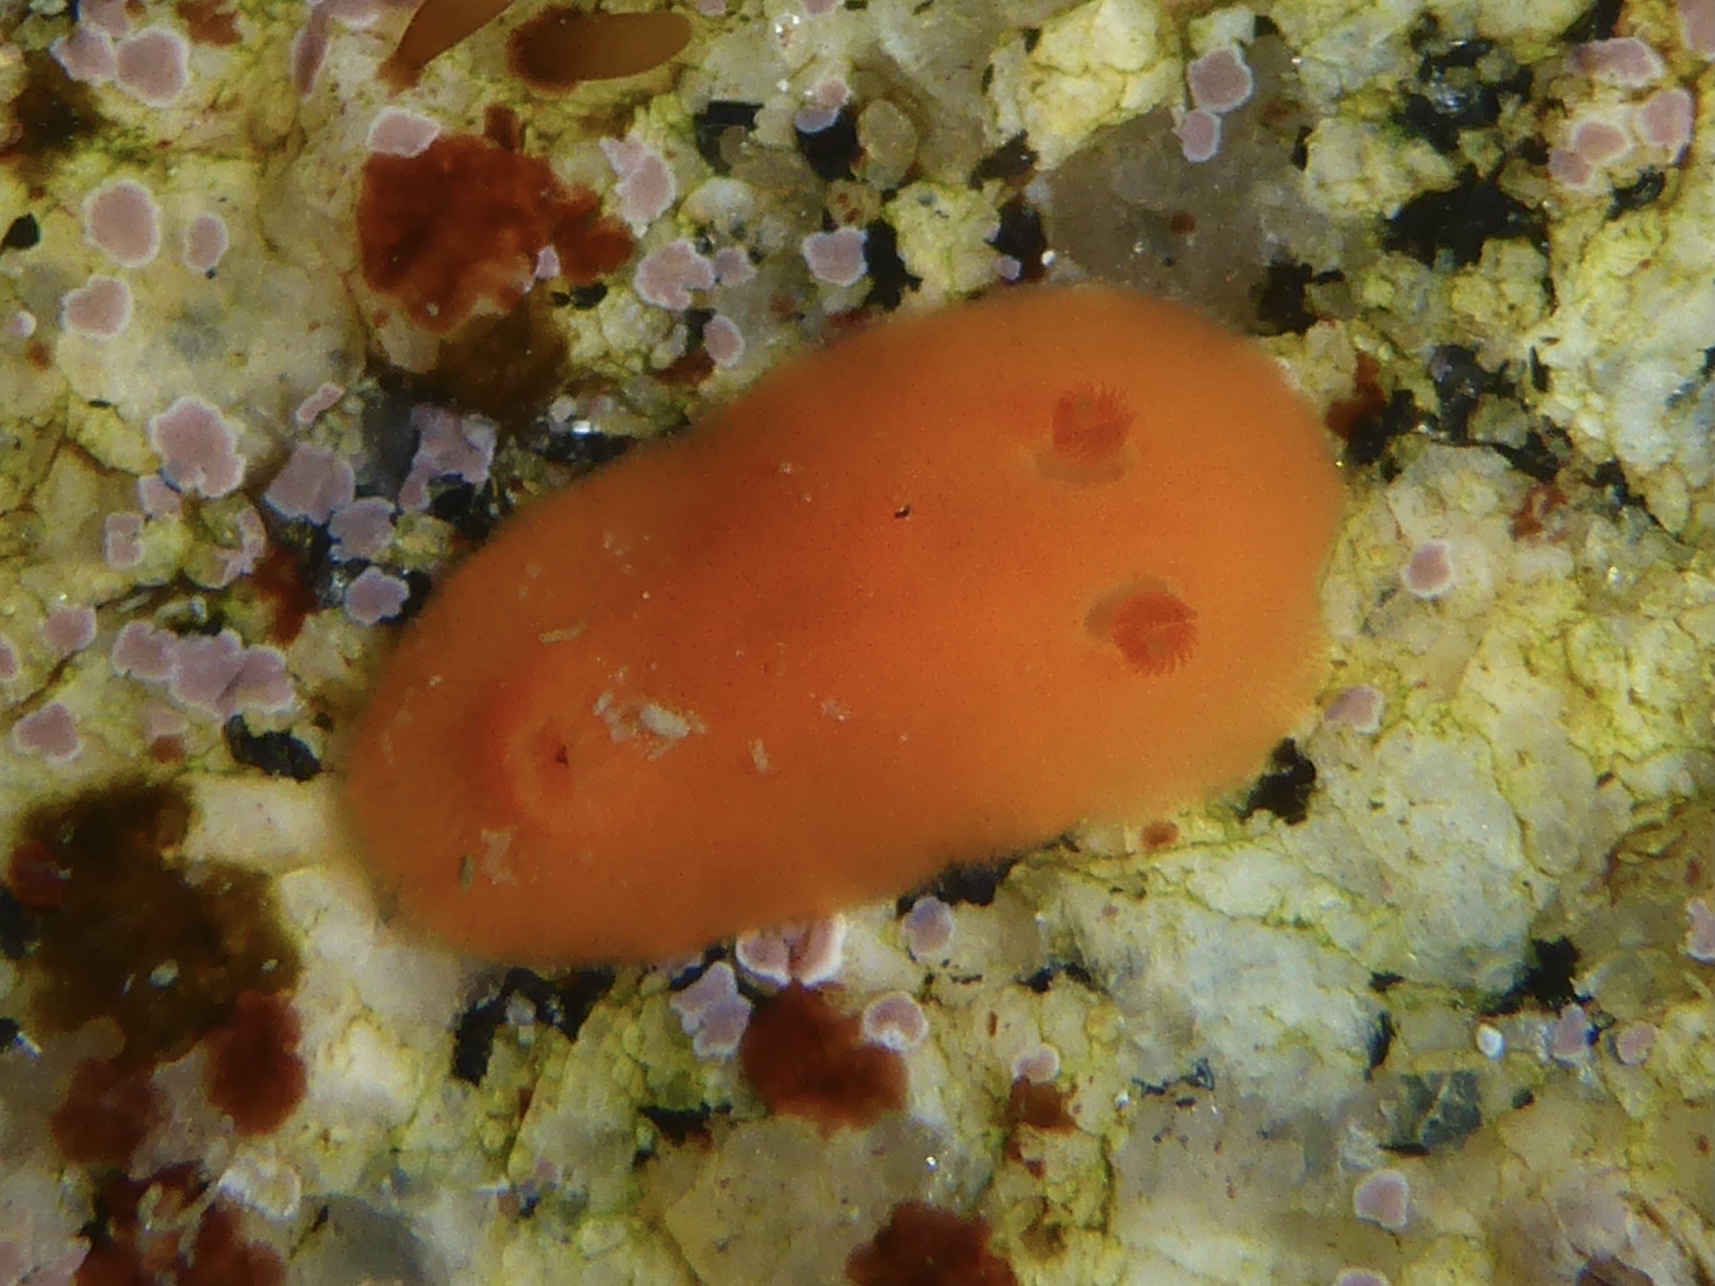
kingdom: Animalia
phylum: Mollusca
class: Gastropoda
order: Nudibranchia
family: Discodorididae
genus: Rostanga
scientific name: Rostanga pulchra
